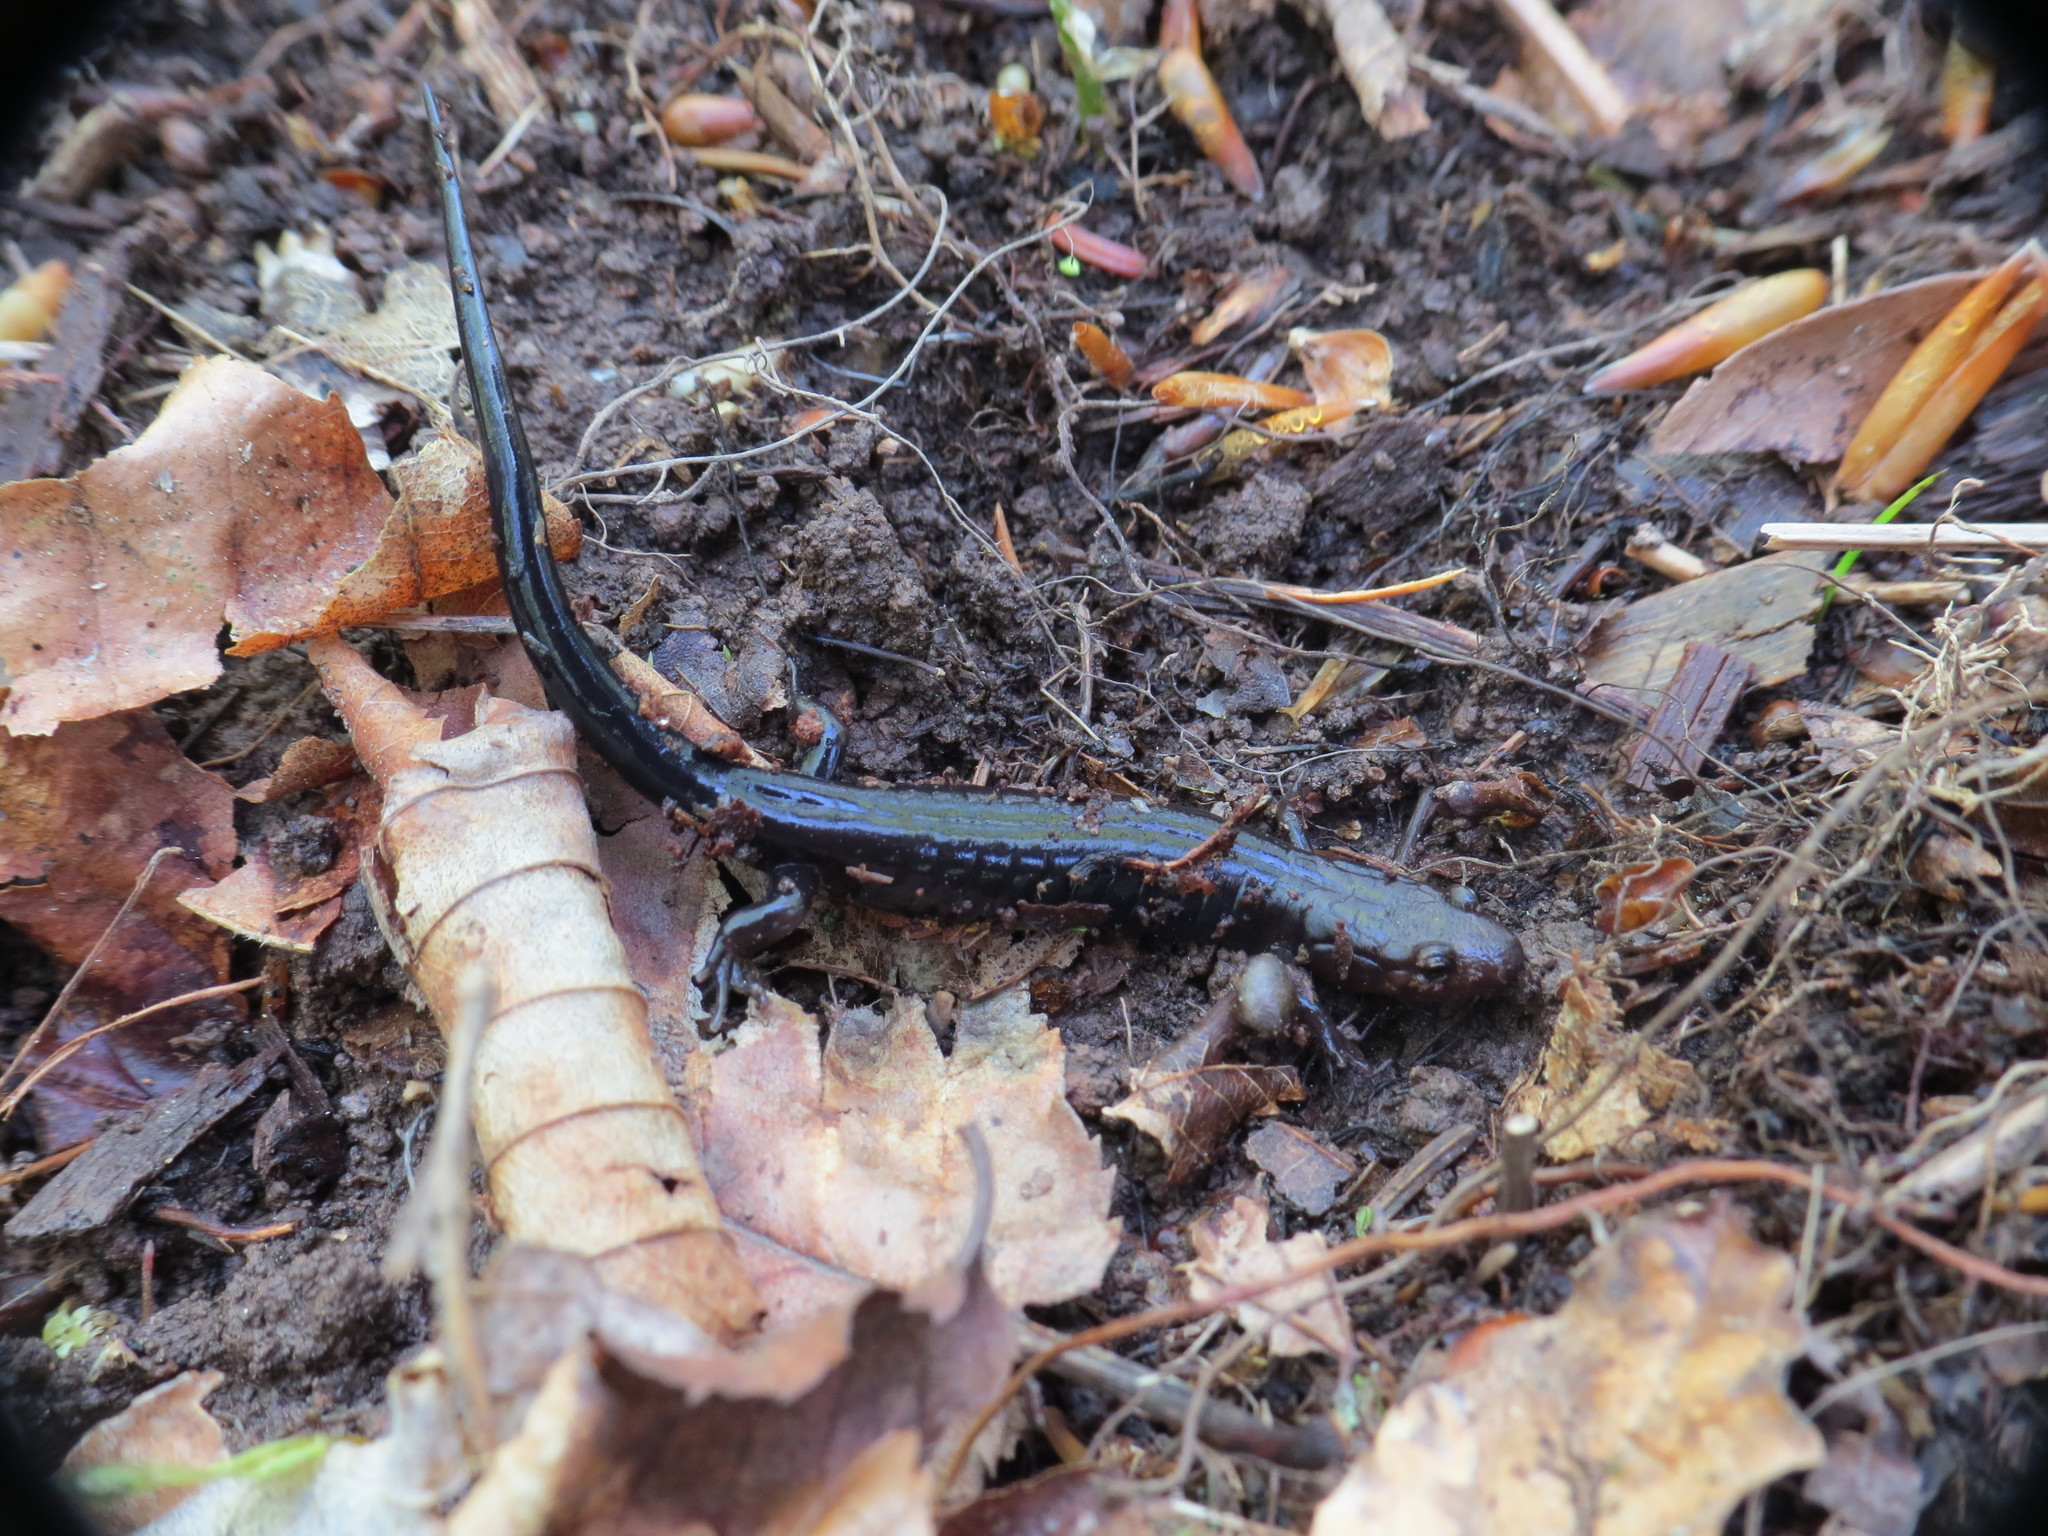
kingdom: Animalia
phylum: Chordata
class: Amphibia
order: Caudata
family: Plethodontidae
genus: Desmognathus
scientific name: Desmognathus ochrophaeus
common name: Allegheny mountain dusky salamander
